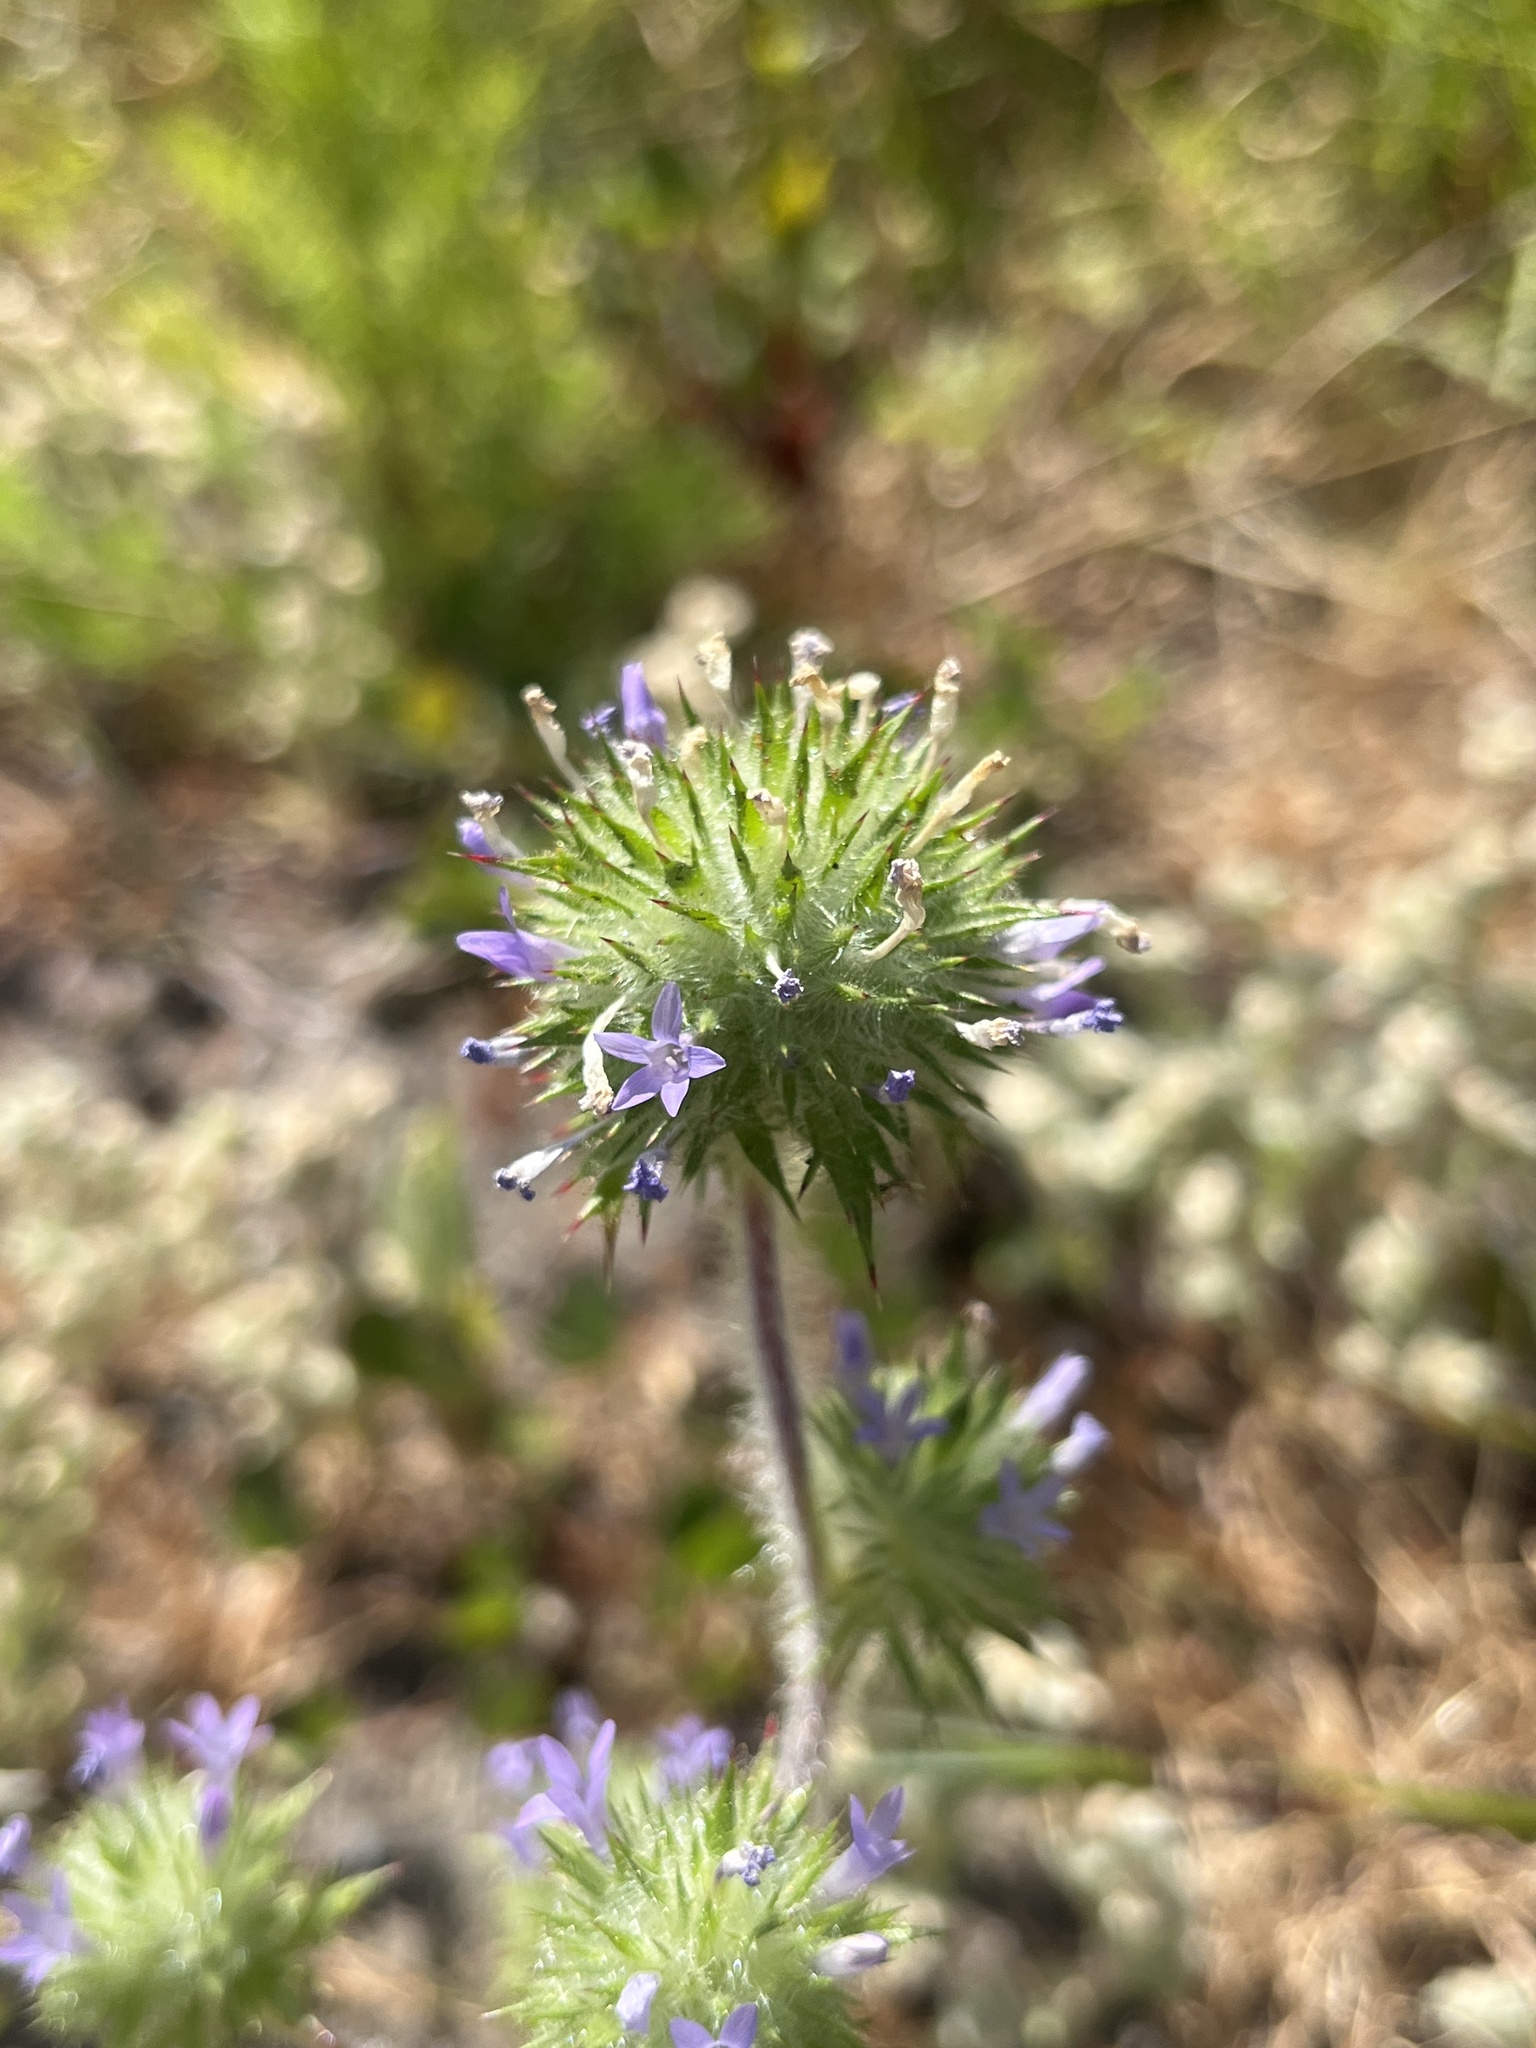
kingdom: Plantae
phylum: Tracheophyta
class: Magnoliopsida
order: Ericales
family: Polemoniaceae
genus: Navarretia
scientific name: Navarretia squarrosa
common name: Skunkweed
